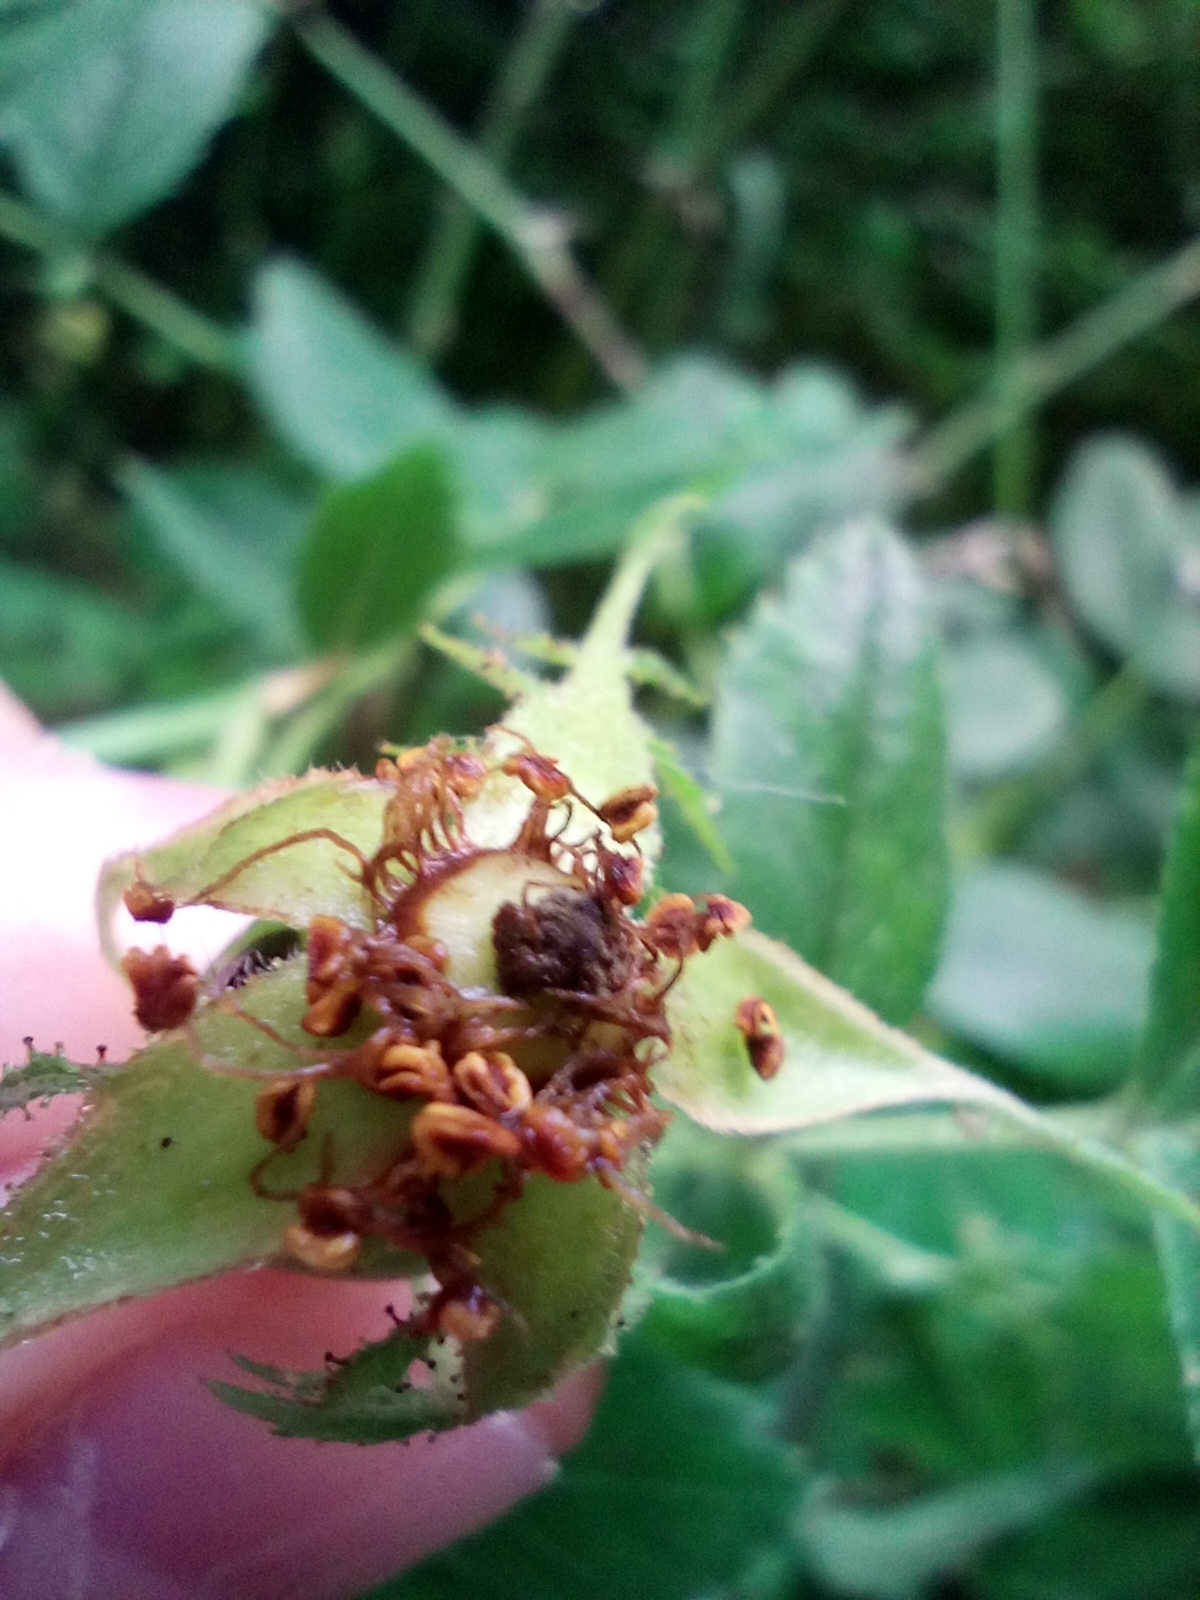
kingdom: Plantae
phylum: Tracheophyta
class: Magnoliopsida
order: Rosales
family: Rosaceae
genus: Rosa
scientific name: Rosa agrestis
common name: Fieldbriar
